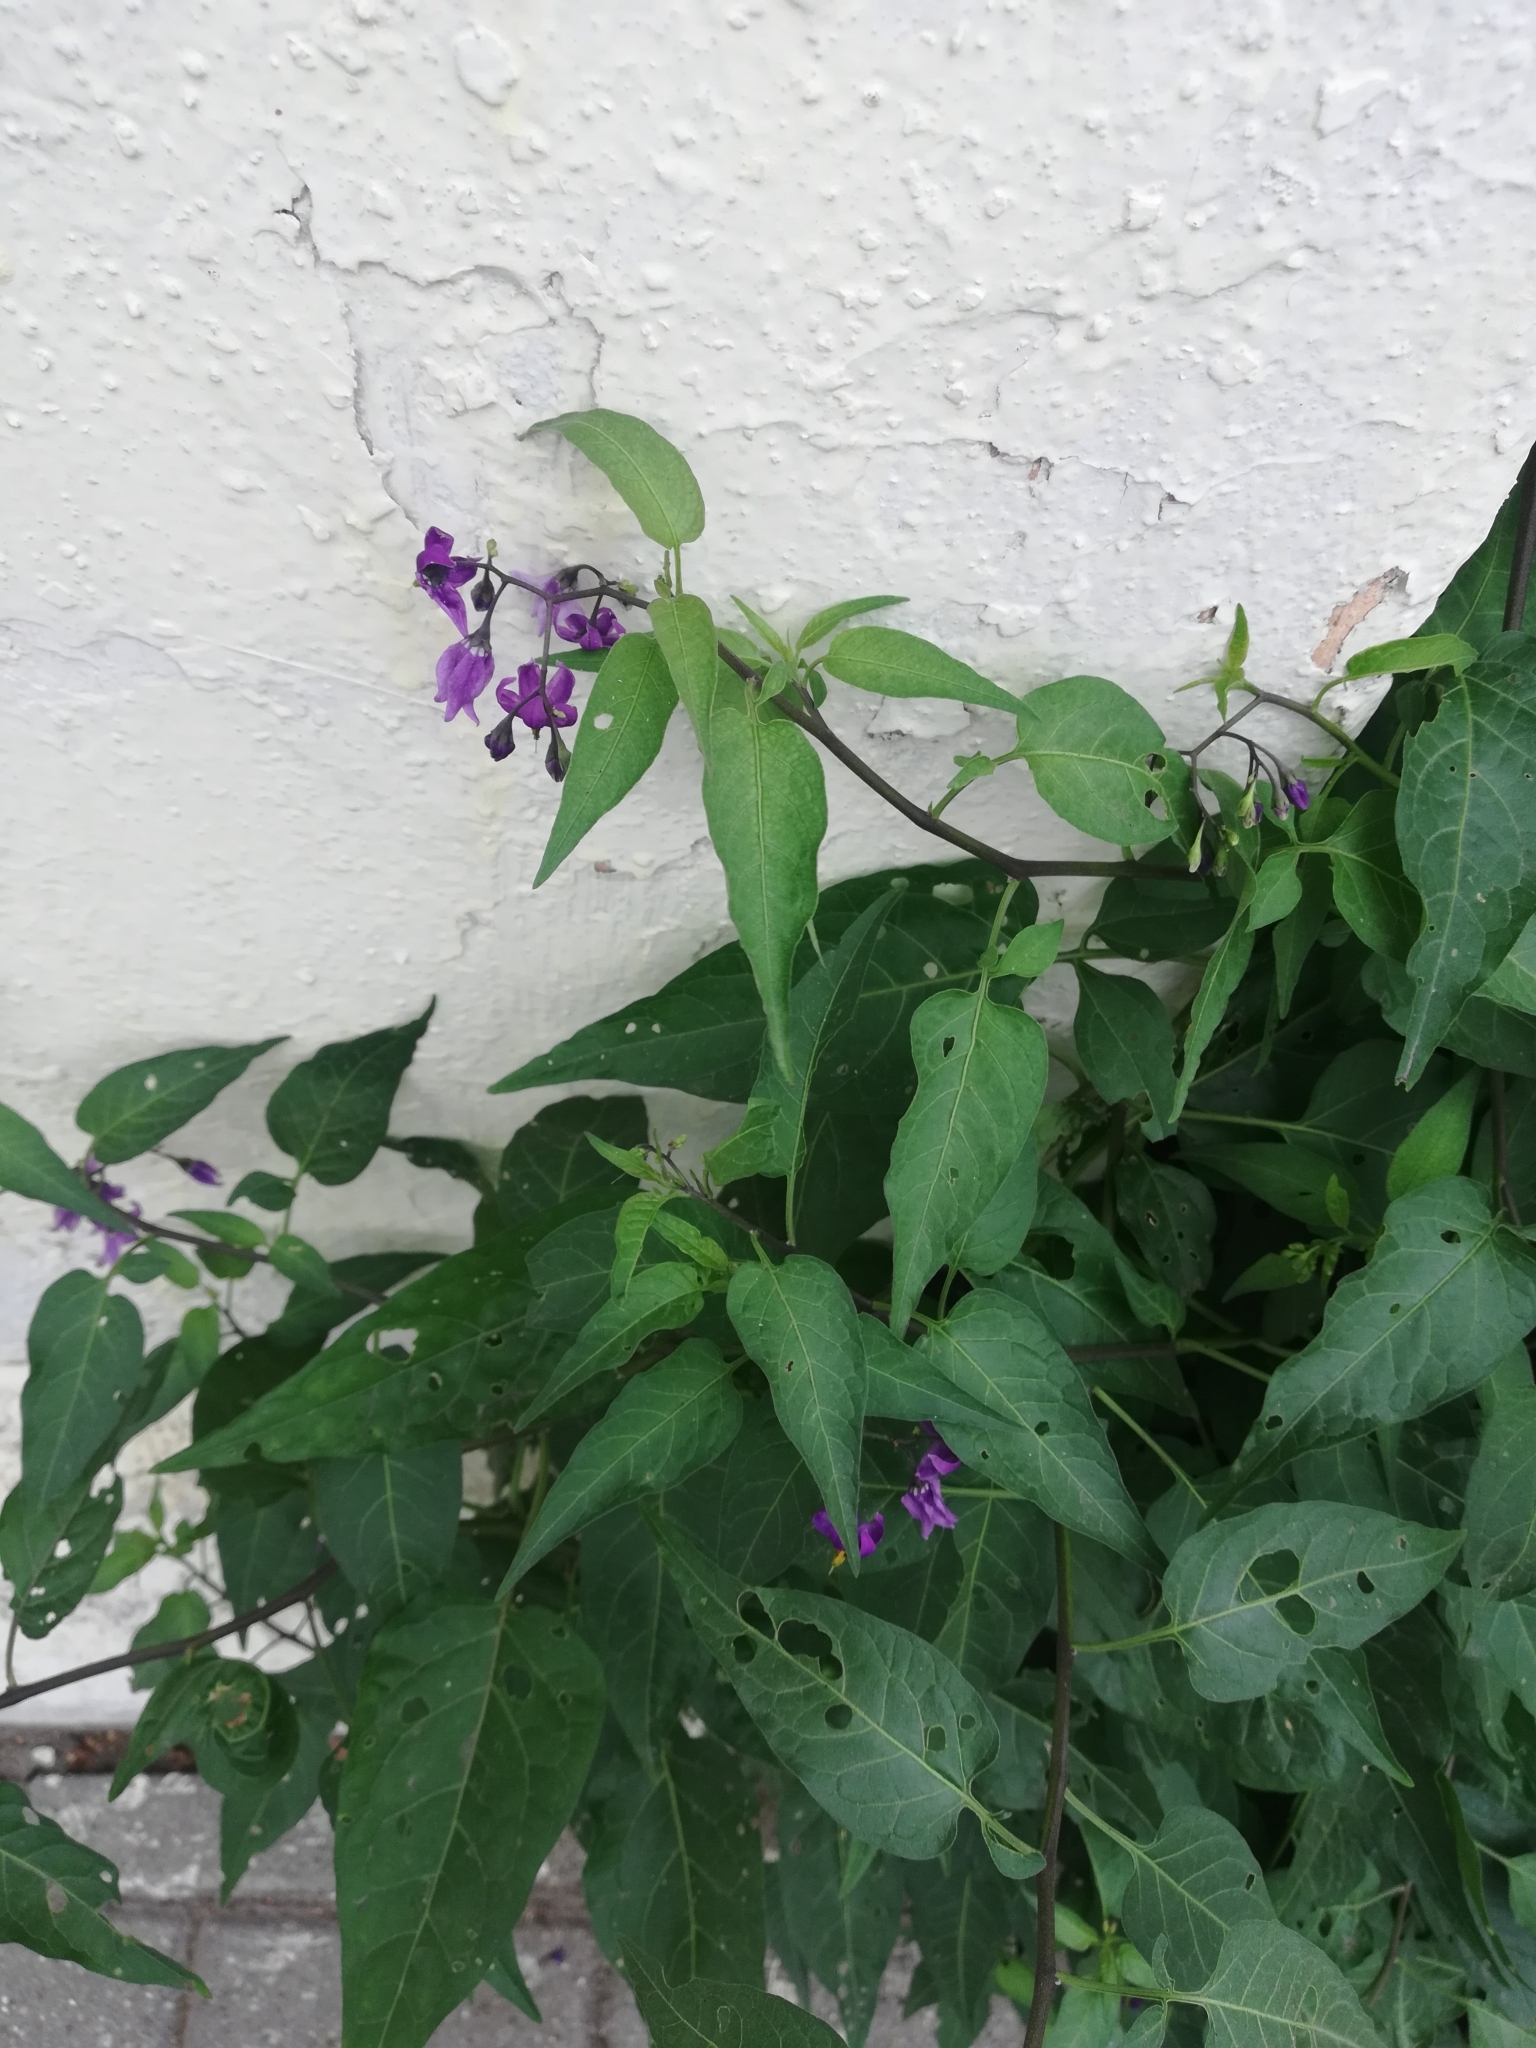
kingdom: Plantae
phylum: Tracheophyta
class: Magnoliopsida
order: Solanales
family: Solanaceae
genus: Solanum
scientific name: Solanum dulcamara
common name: Climbing nightshade
